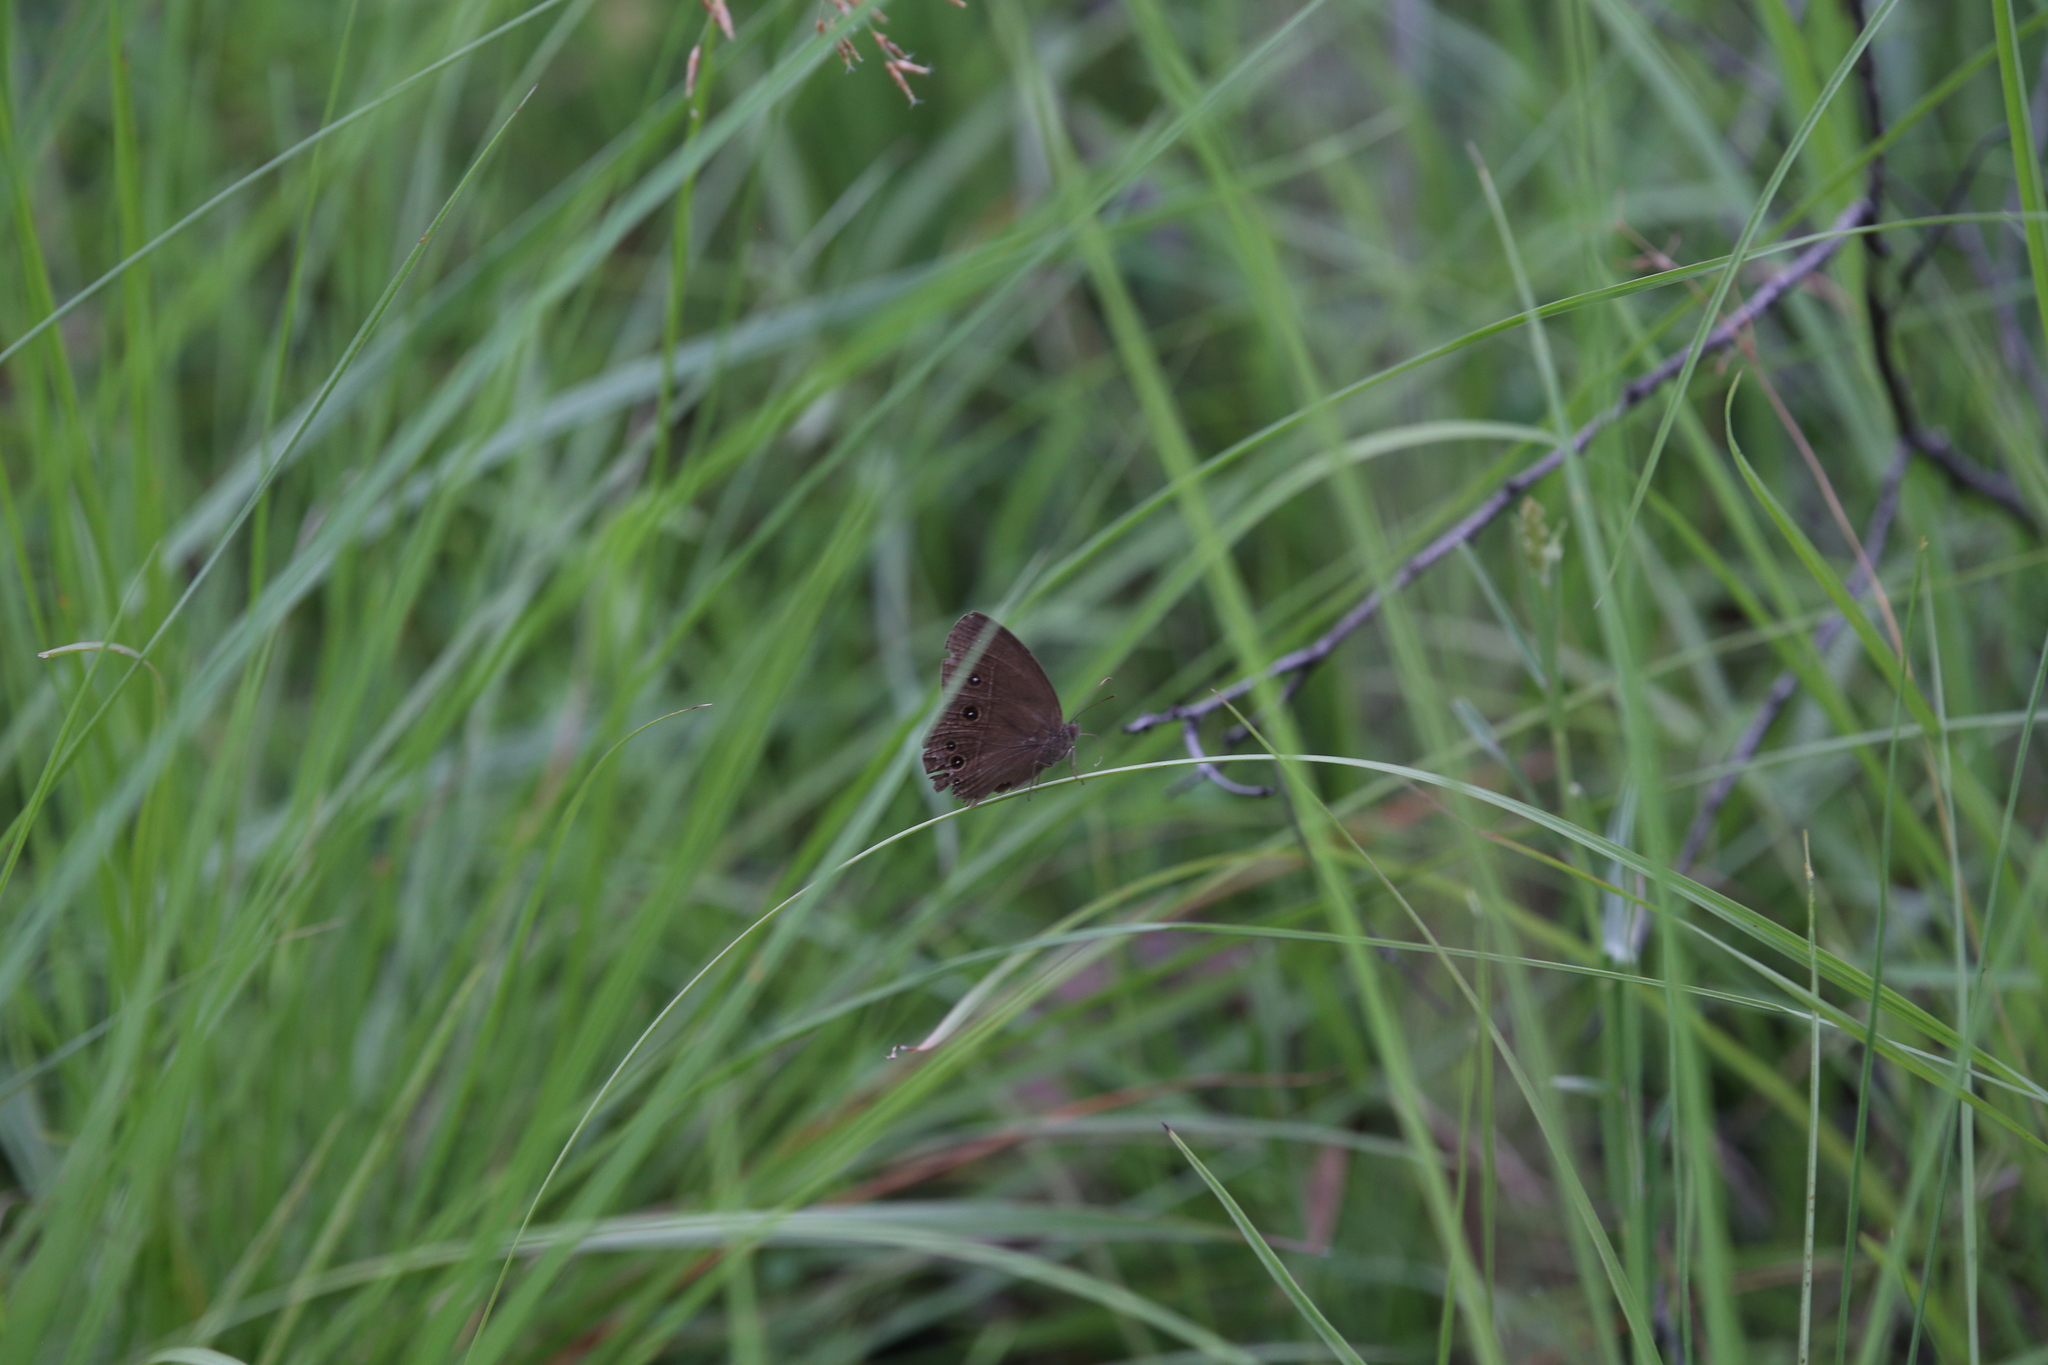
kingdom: Animalia
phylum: Arthropoda
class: Insecta
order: Lepidoptera
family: Nymphalidae
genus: Mycalesis
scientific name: Mycalesis perseus
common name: Dingy bushbrown
